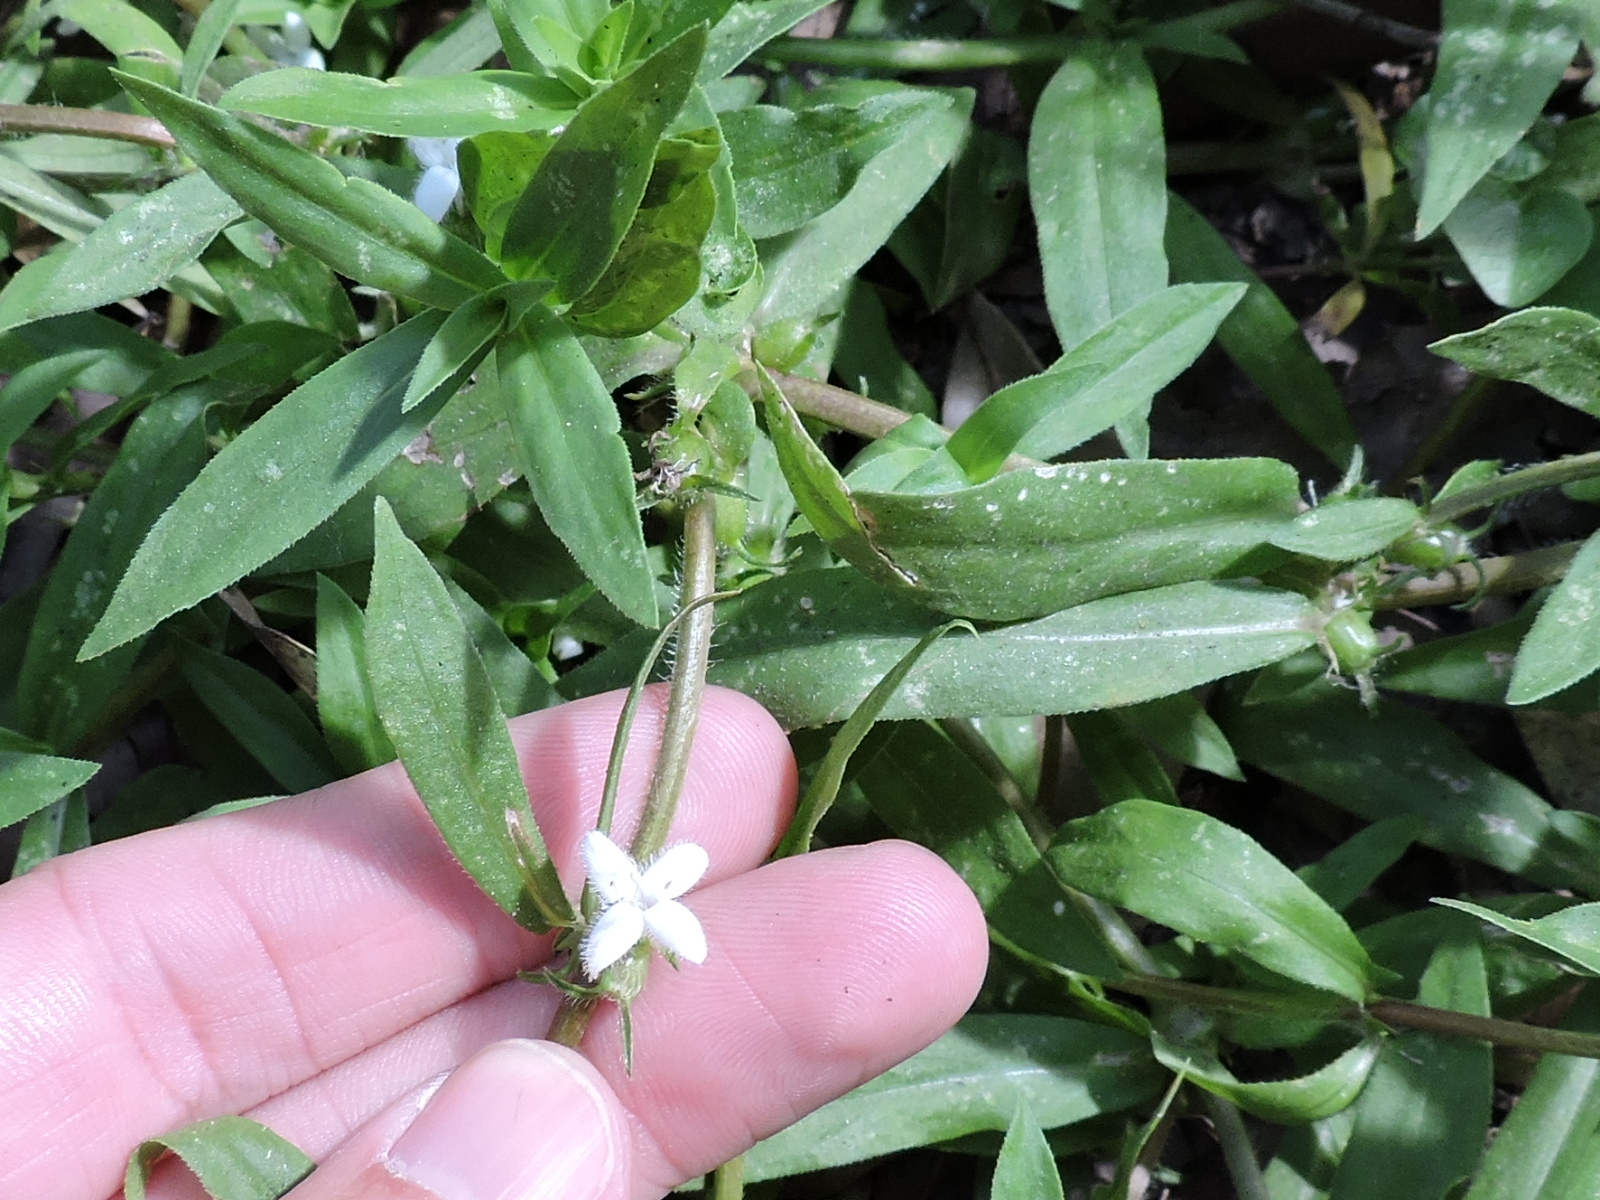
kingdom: Plantae
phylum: Tracheophyta
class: Magnoliopsida
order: Gentianales
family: Rubiaceae
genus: Diodia
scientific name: Diodia virginiana
